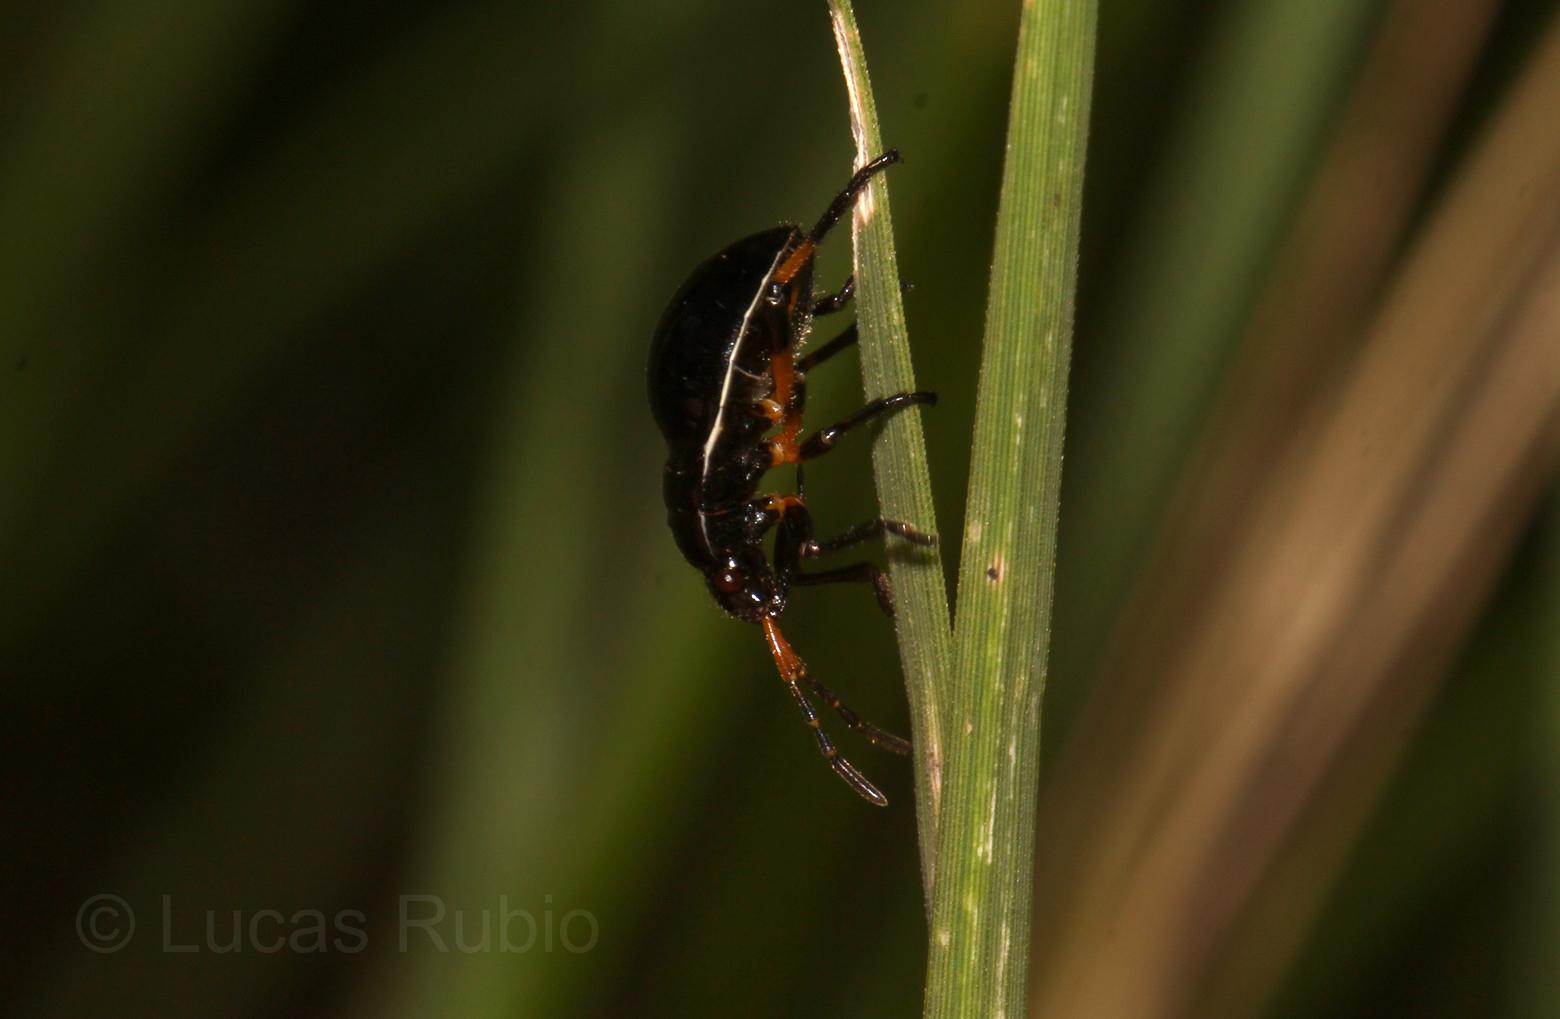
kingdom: Animalia
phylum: Arthropoda
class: Insecta
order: Hemiptera
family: Largidae
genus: Largus
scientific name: Largus fasciatus
